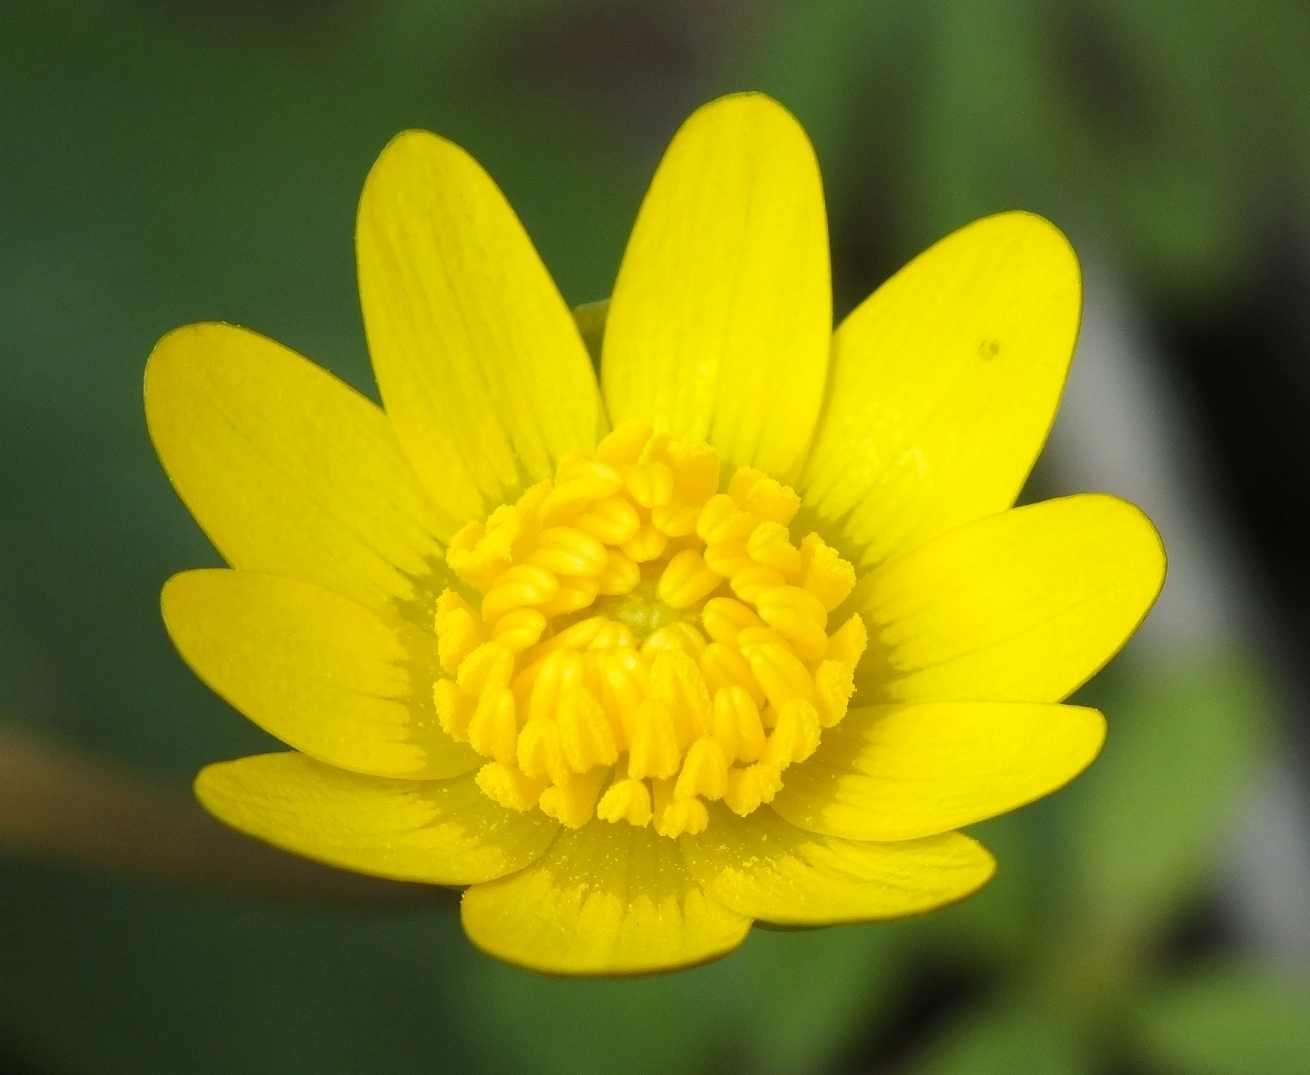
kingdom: Plantae
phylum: Tracheophyta
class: Magnoliopsida
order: Ranunculales
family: Ranunculaceae
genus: Ficaria
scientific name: Ficaria verna
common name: Lesser celandine
